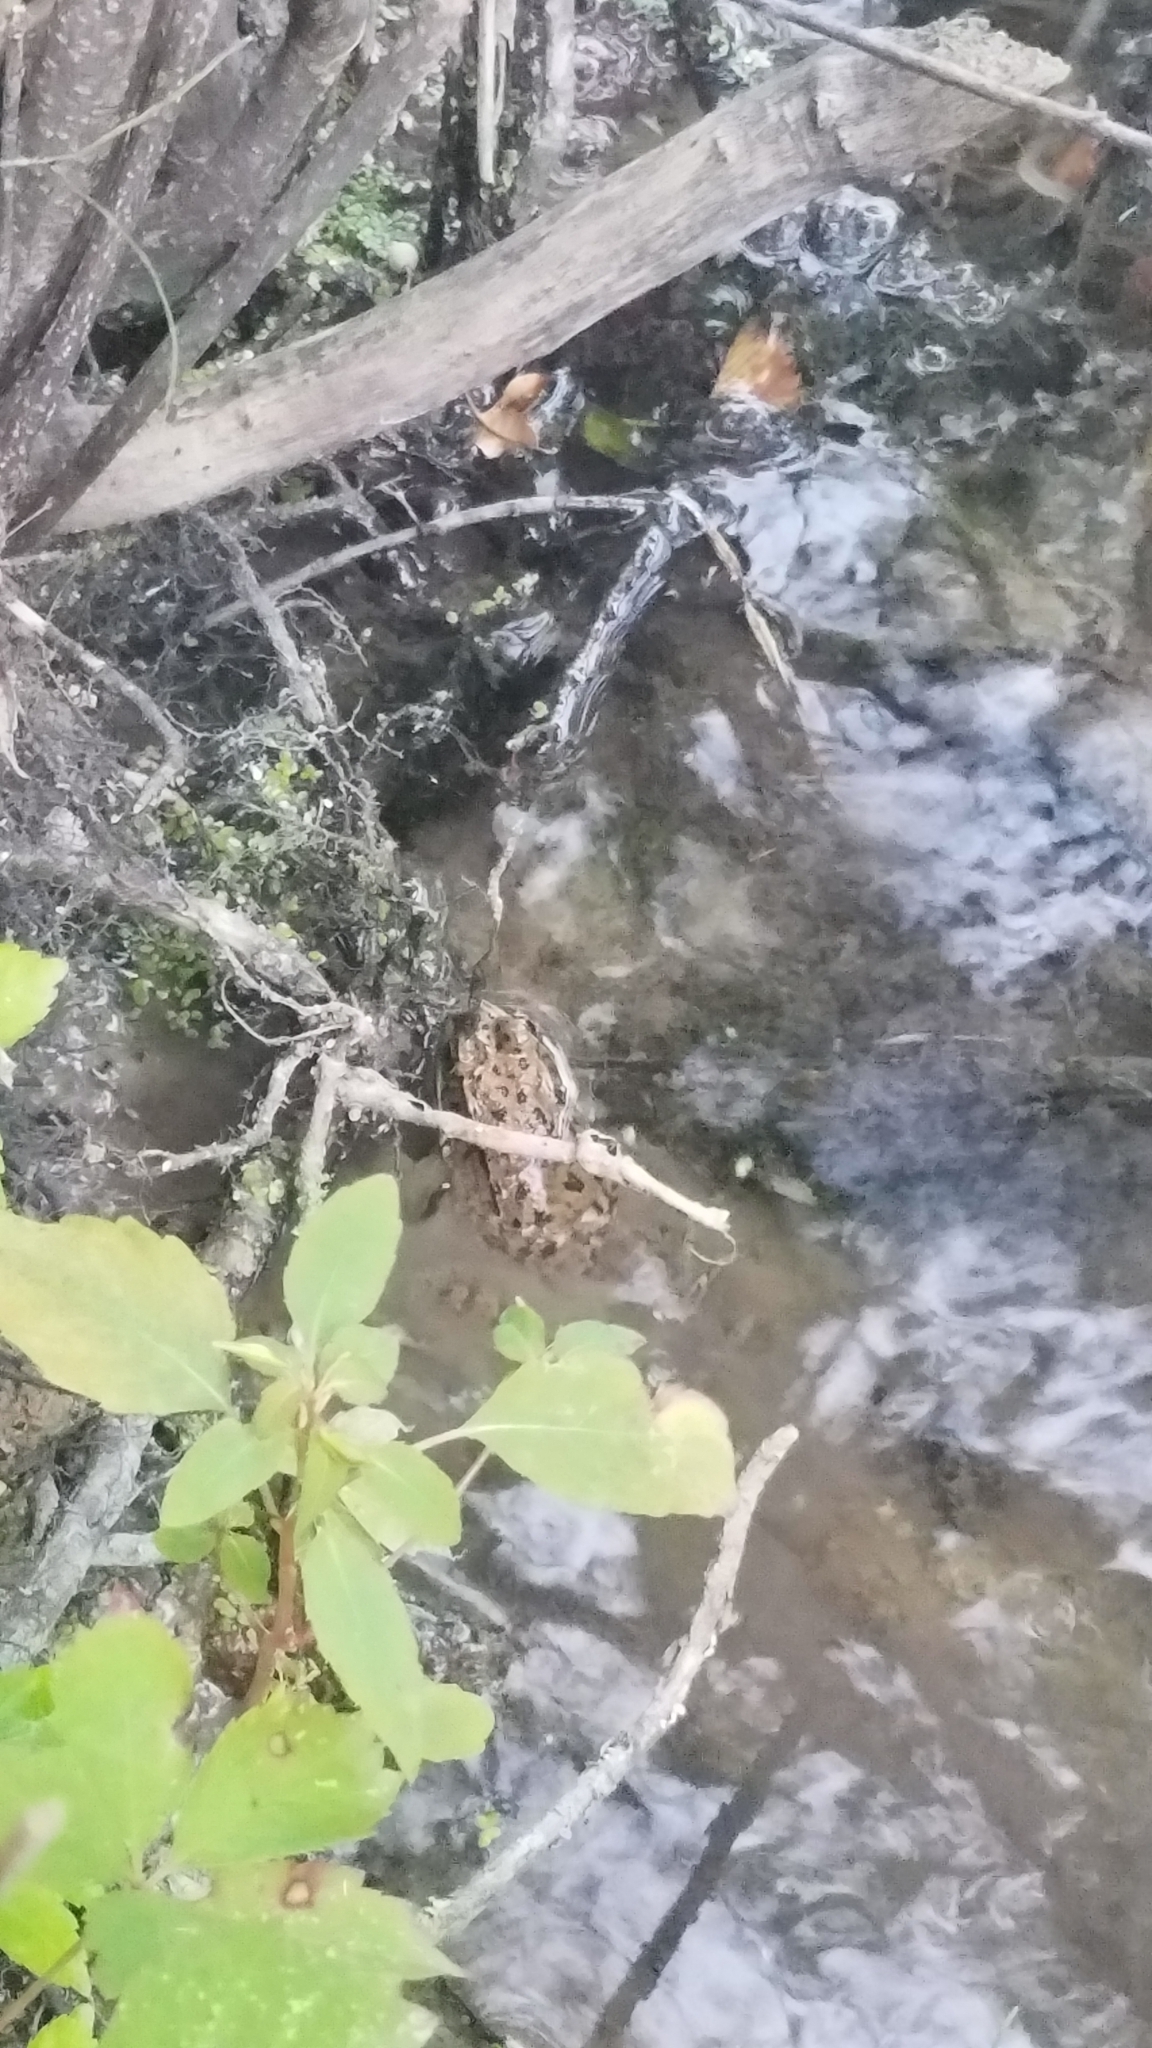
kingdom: Animalia
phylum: Chordata
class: Amphibia
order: Anura
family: Ranidae
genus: Lithobates
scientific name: Lithobates clamitans
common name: Green frog
